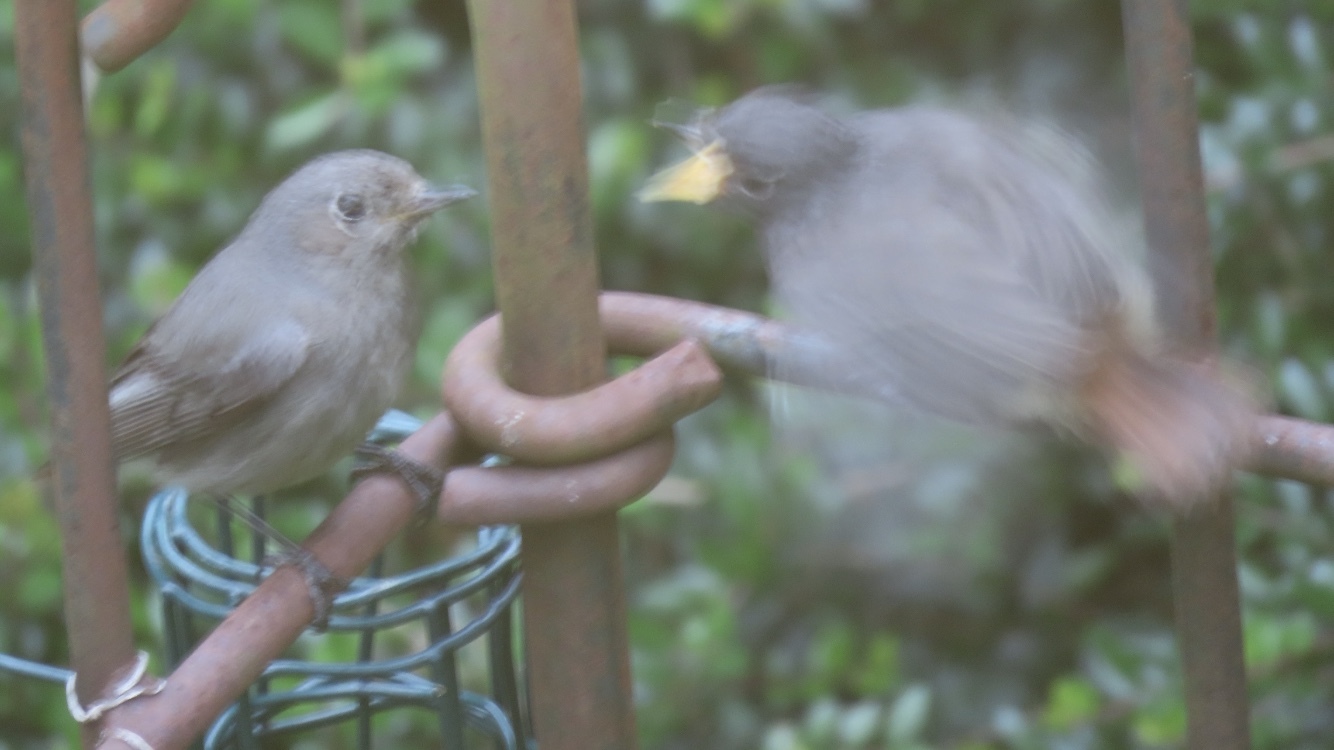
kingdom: Animalia
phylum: Chordata
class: Aves
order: Passeriformes
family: Muscicapidae
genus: Phoenicurus
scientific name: Phoenicurus ochruros
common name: Black redstart
